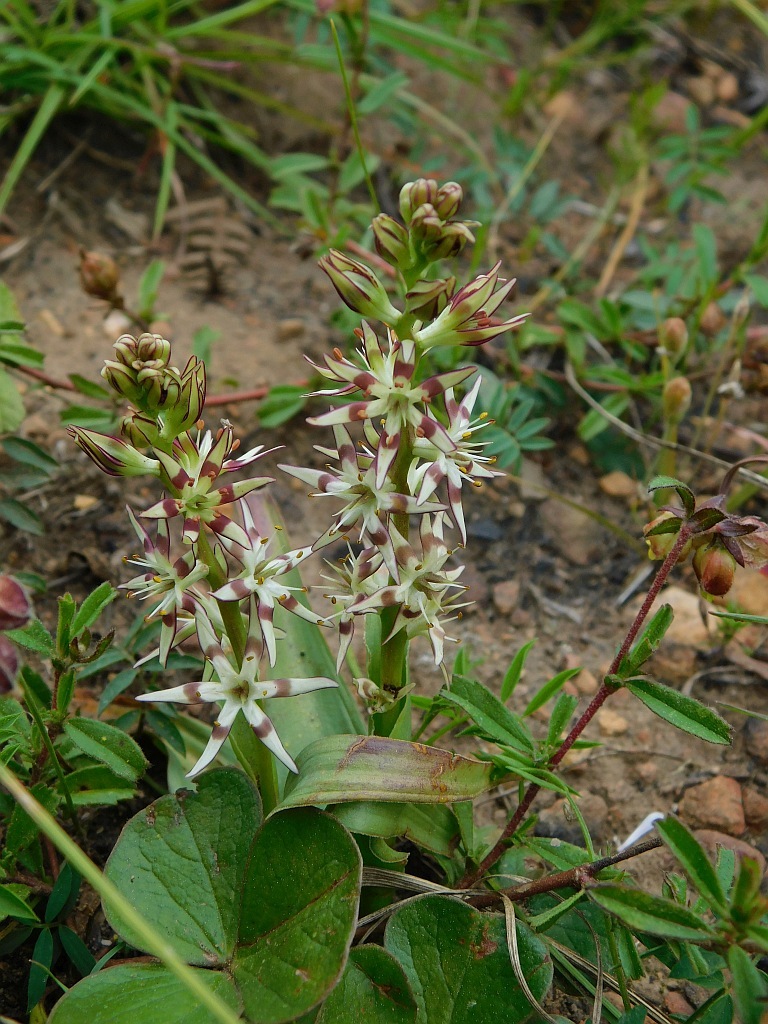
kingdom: Plantae
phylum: Tracheophyta
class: Liliopsida
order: Liliales
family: Colchicaceae
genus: Wurmbea
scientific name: Wurmbea spicata
